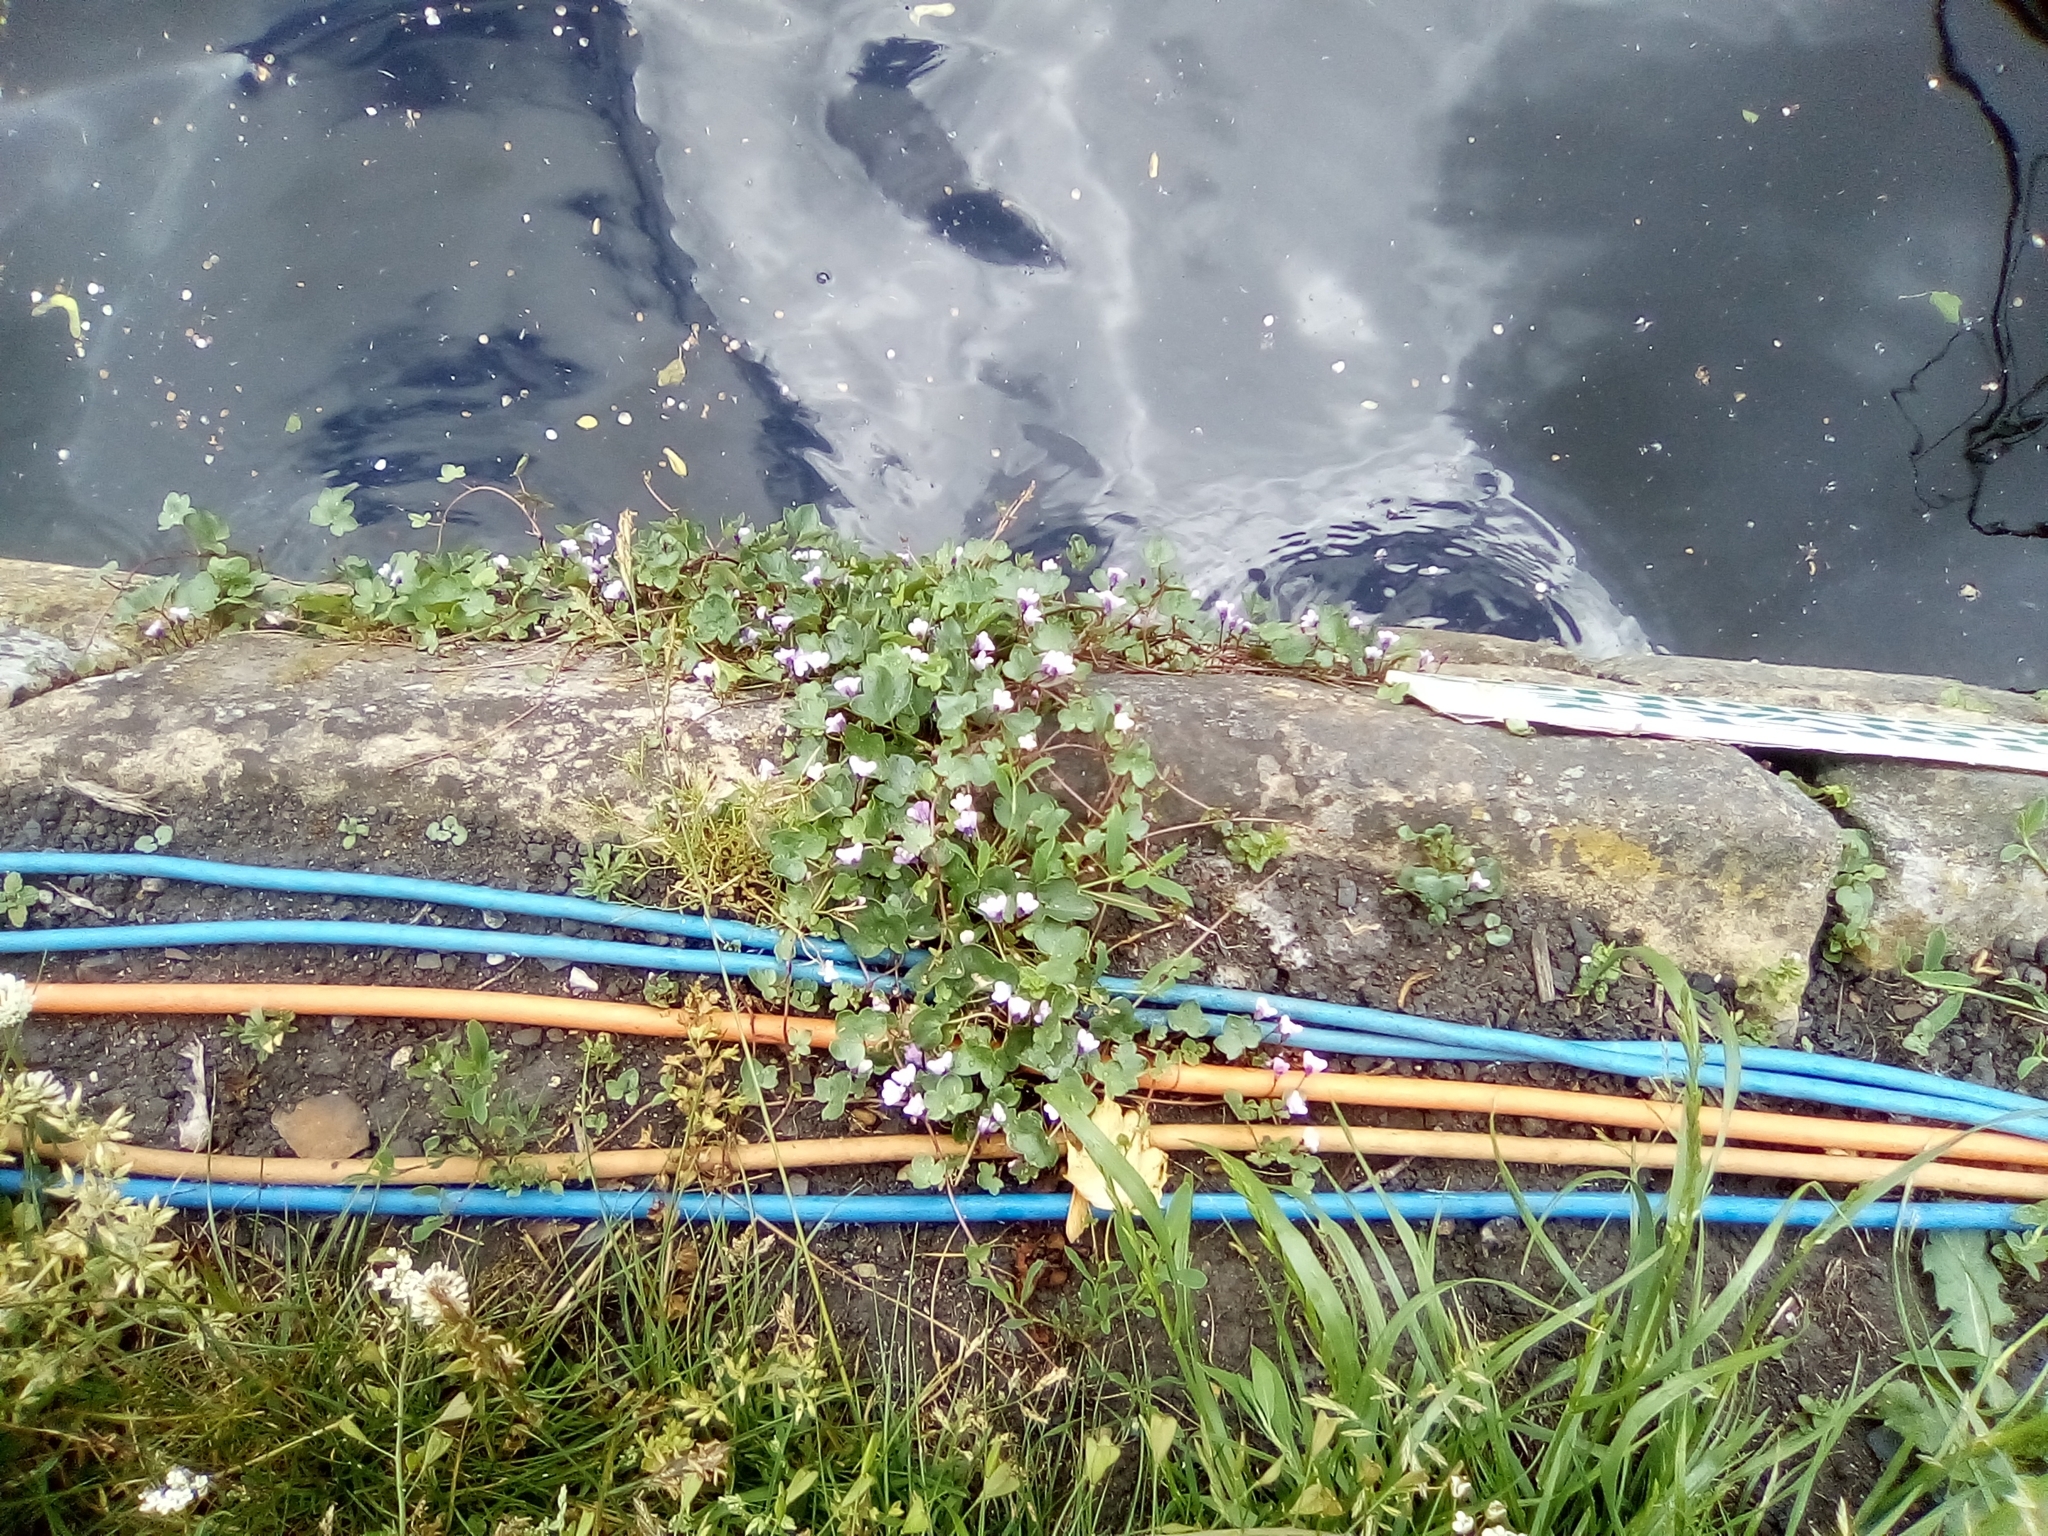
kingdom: Plantae
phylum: Tracheophyta
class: Magnoliopsida
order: Lamiales
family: Plantaginaceae
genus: Cymbalaria
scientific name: Cymbalaria muralis
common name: Ivy-leaved toadflax
